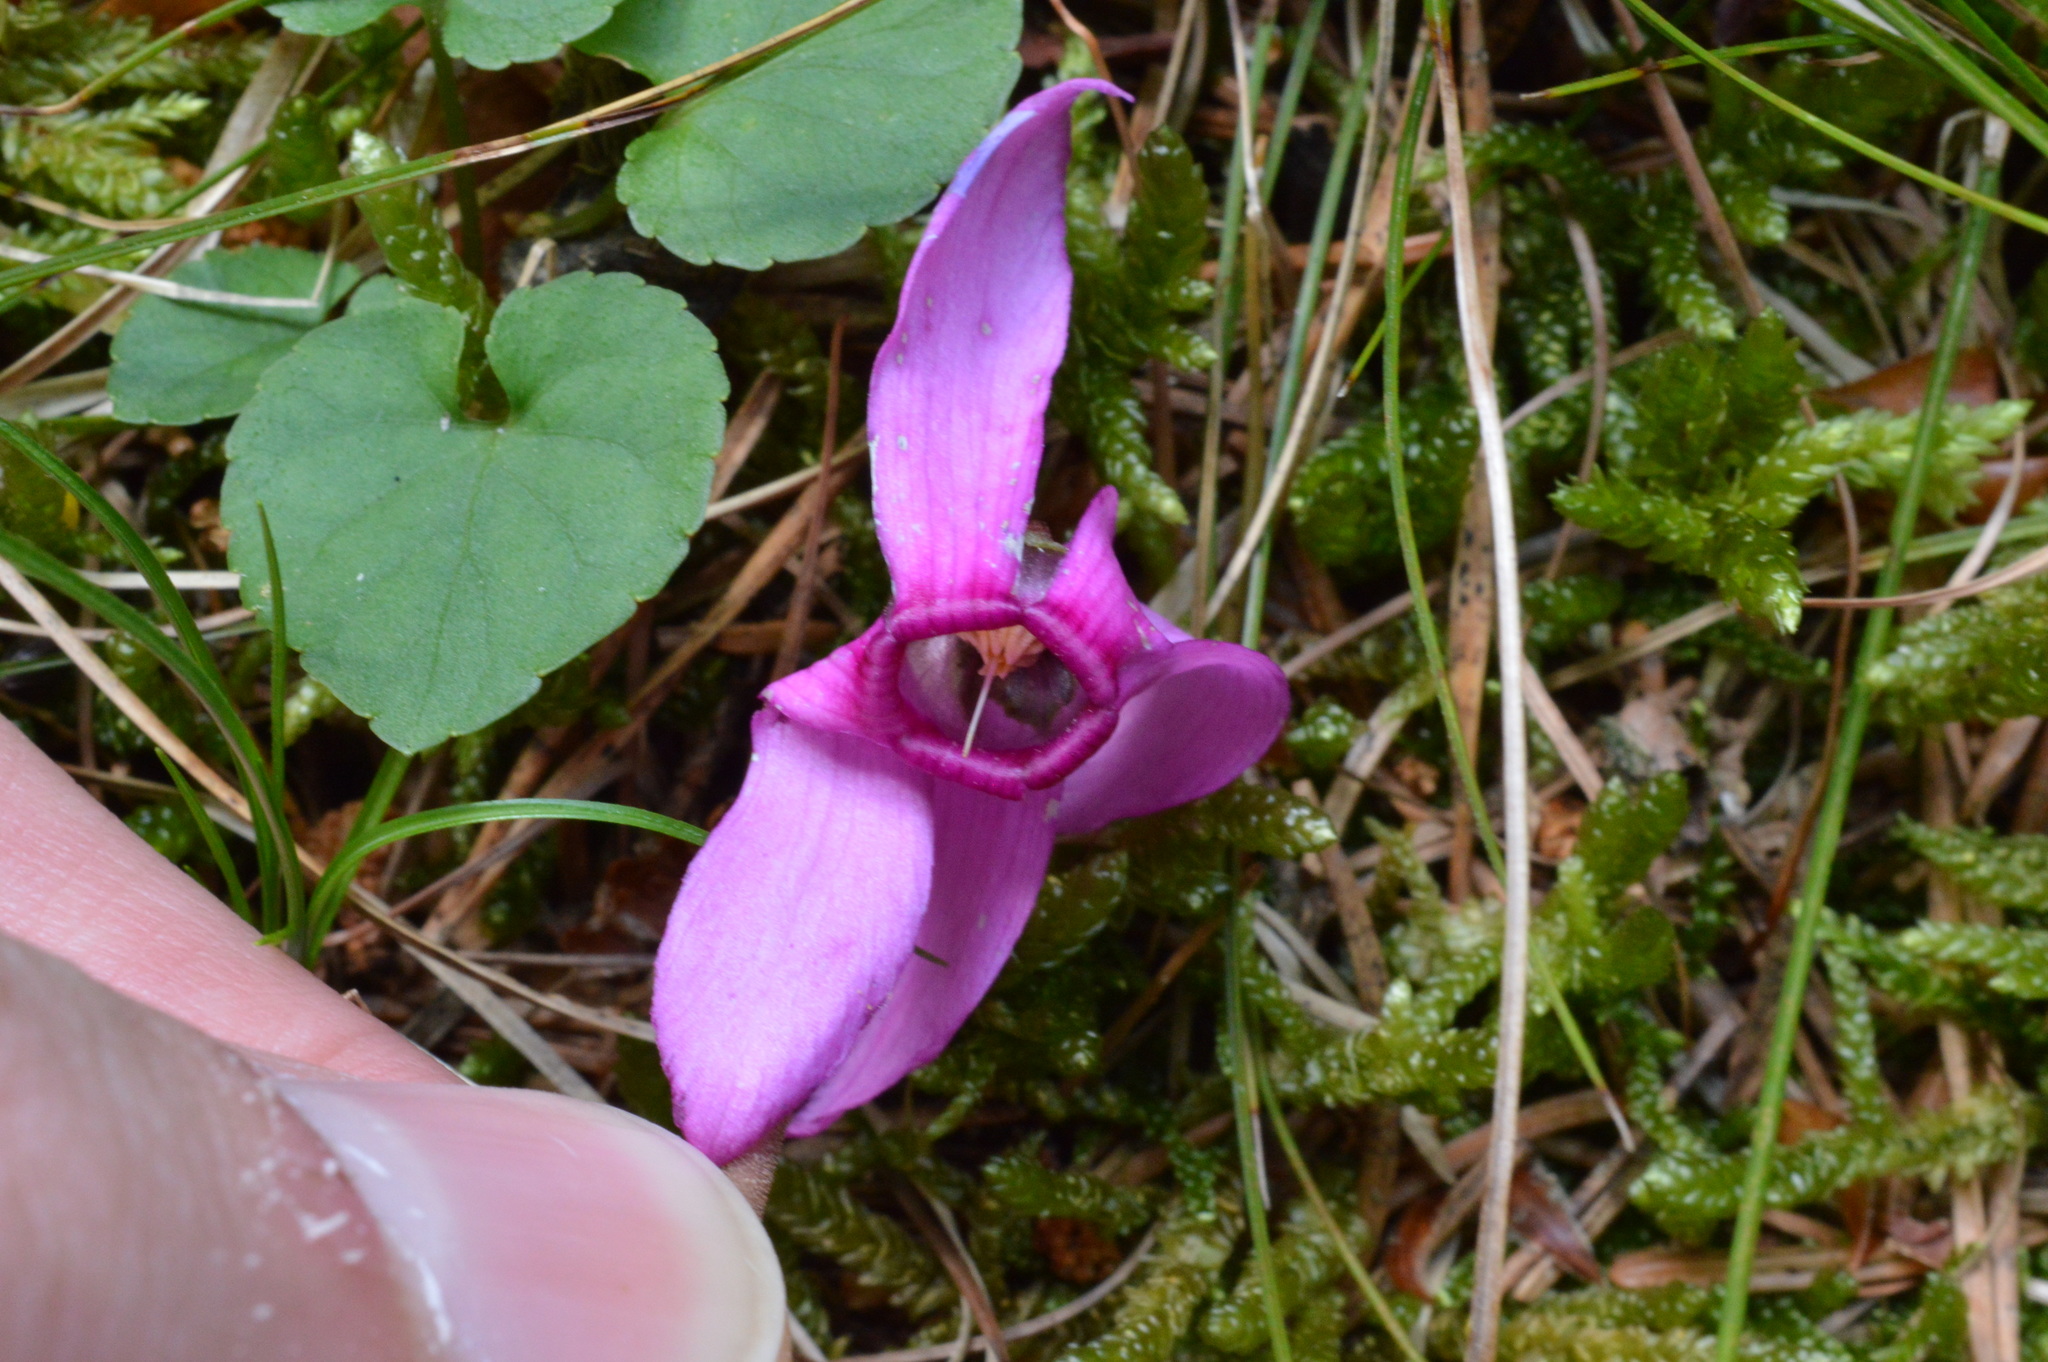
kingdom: Plantae
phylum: Tracheophyta
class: Magnoliopsida
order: Ericales
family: Primulaceae
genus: Cyclamen
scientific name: Cyclamen purpurascens
